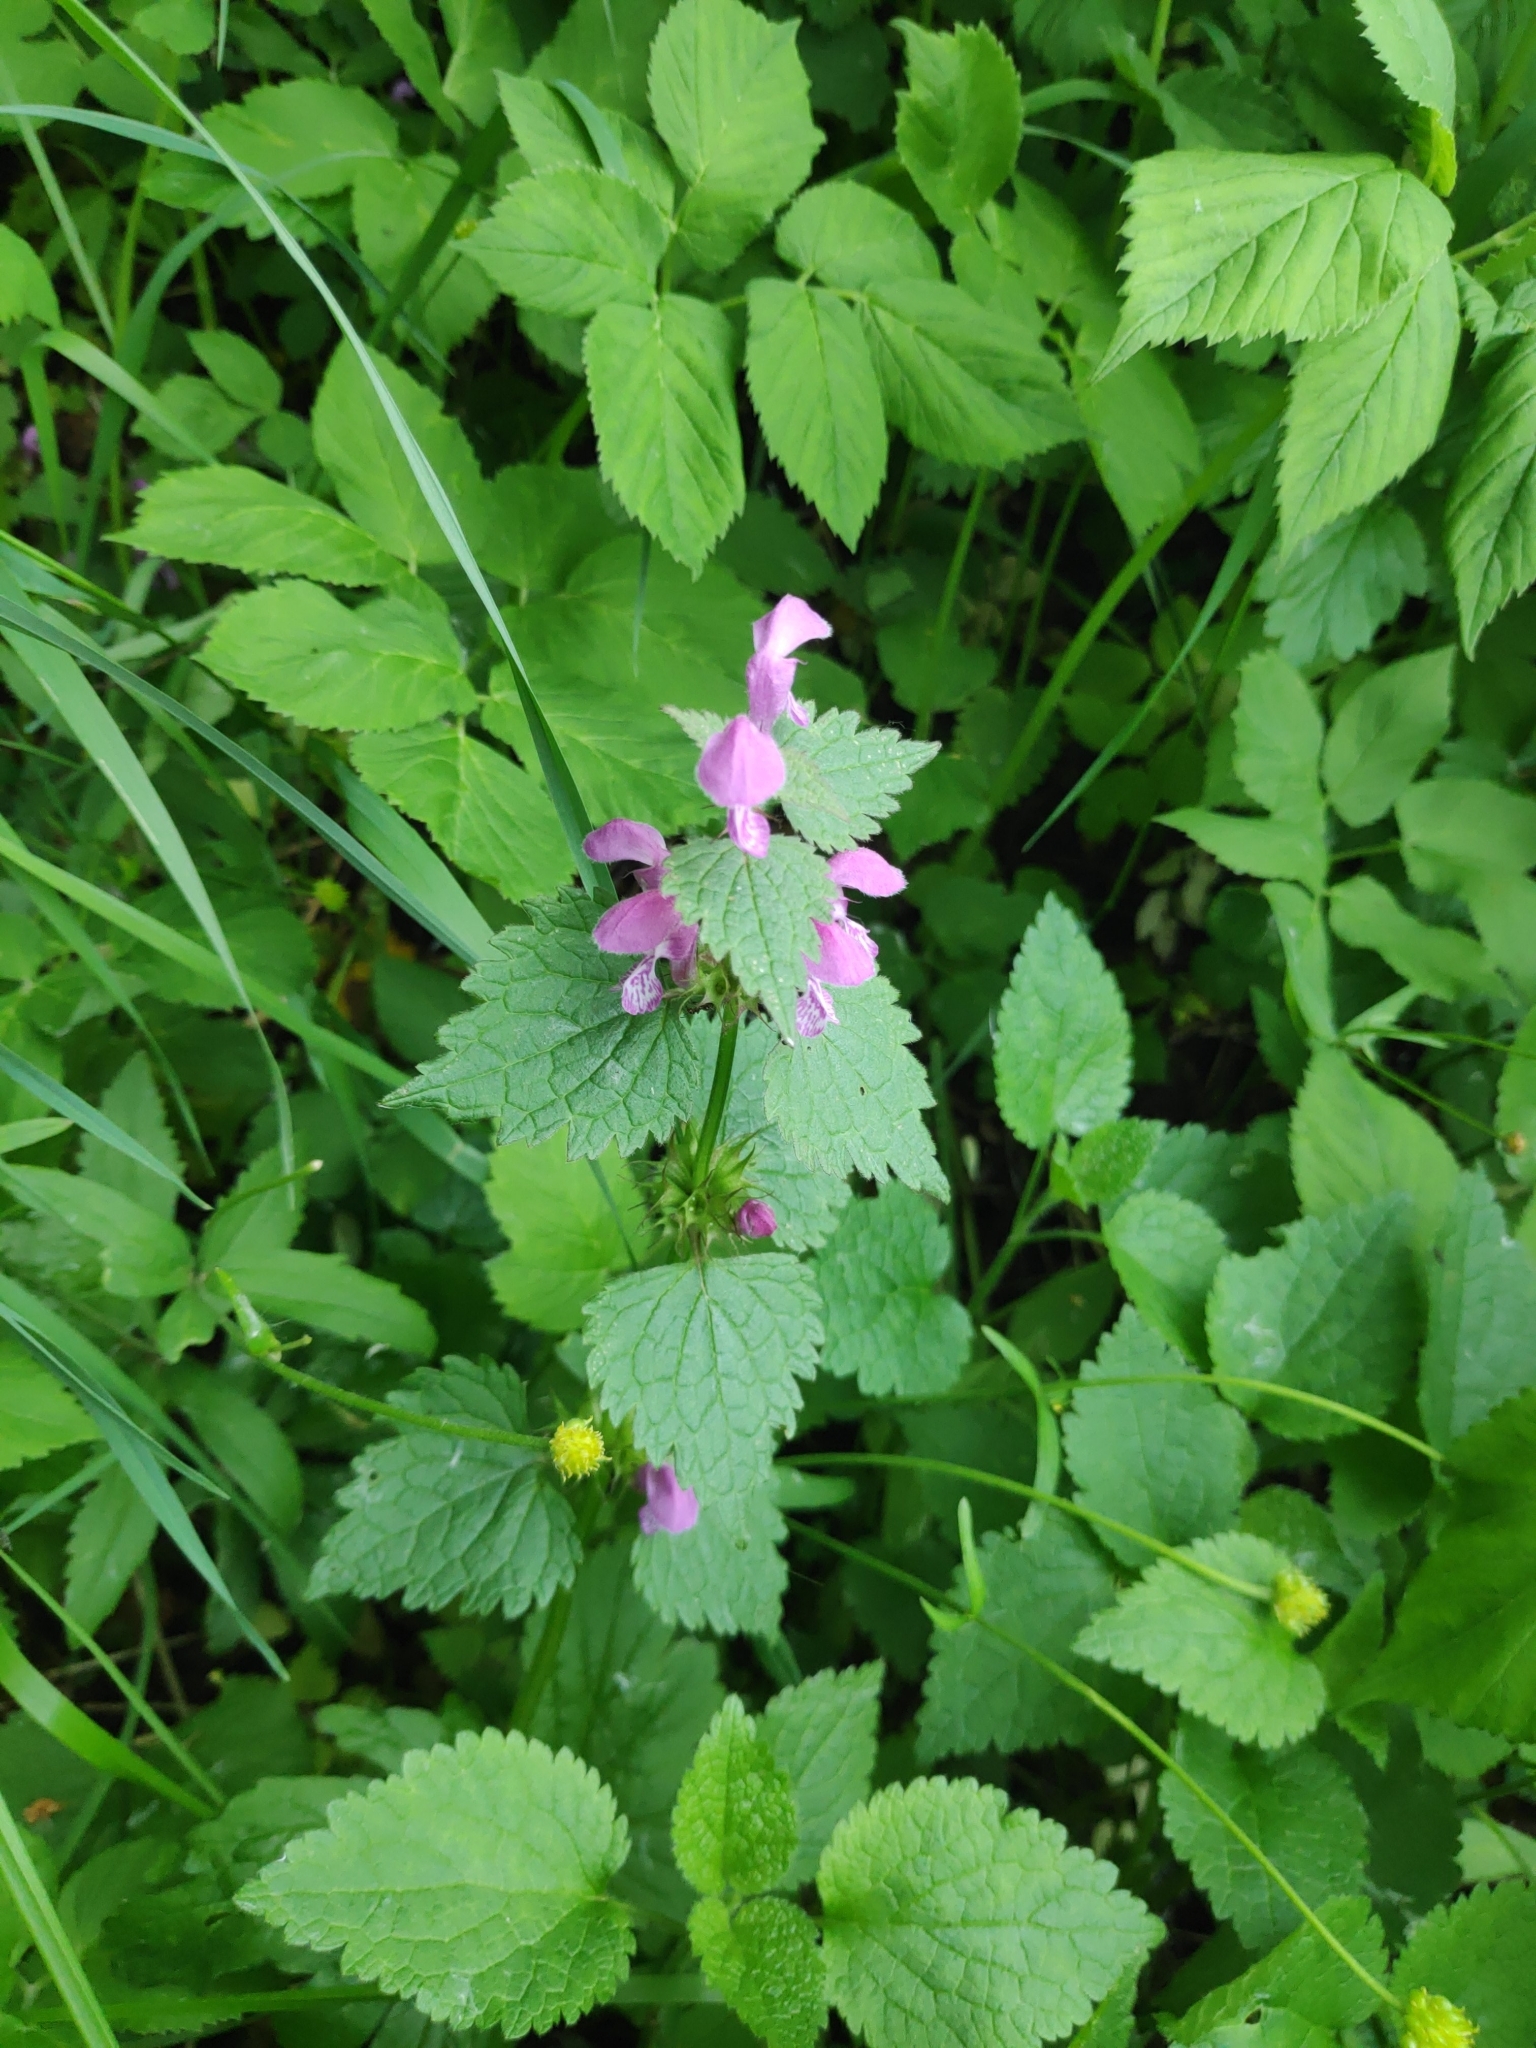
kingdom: Plantae
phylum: Tracheophyta
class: Magnoliopsida
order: Lamiales
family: Lamiaceae
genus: Lamium
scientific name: Lamium maculatum
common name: Spotted dead-nettle
